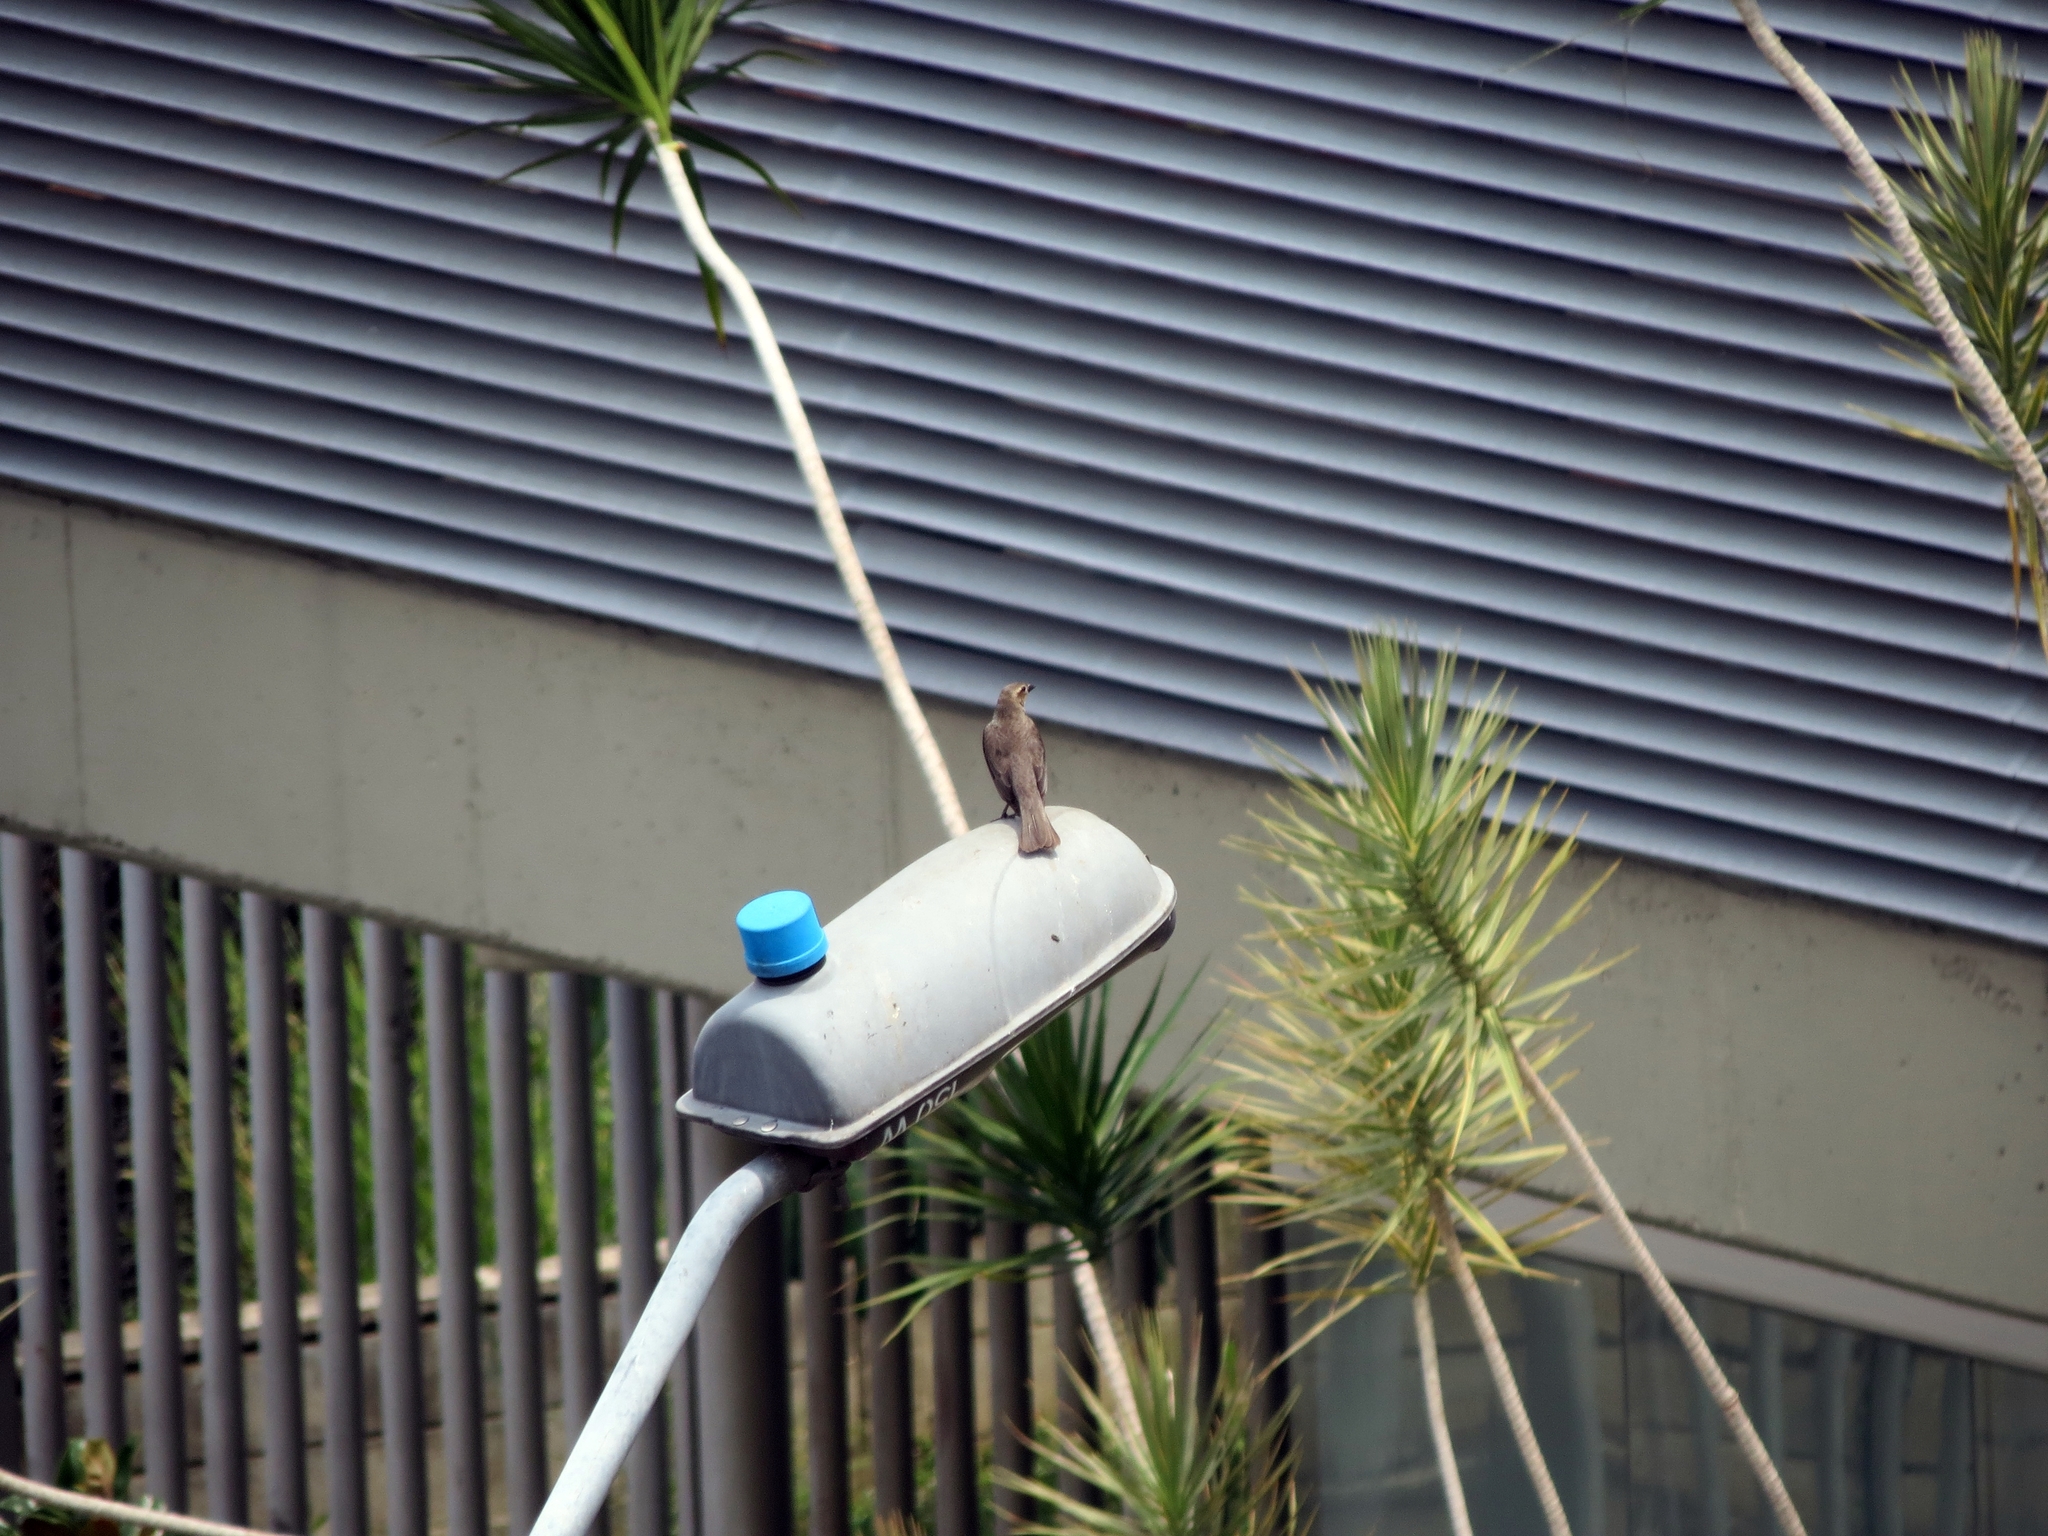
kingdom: Animalia
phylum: Chordata
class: Aves
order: Passeriformes
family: Icteridae
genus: Molothrus
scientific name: Molothrus bonariensis
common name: Shiny cowbird
